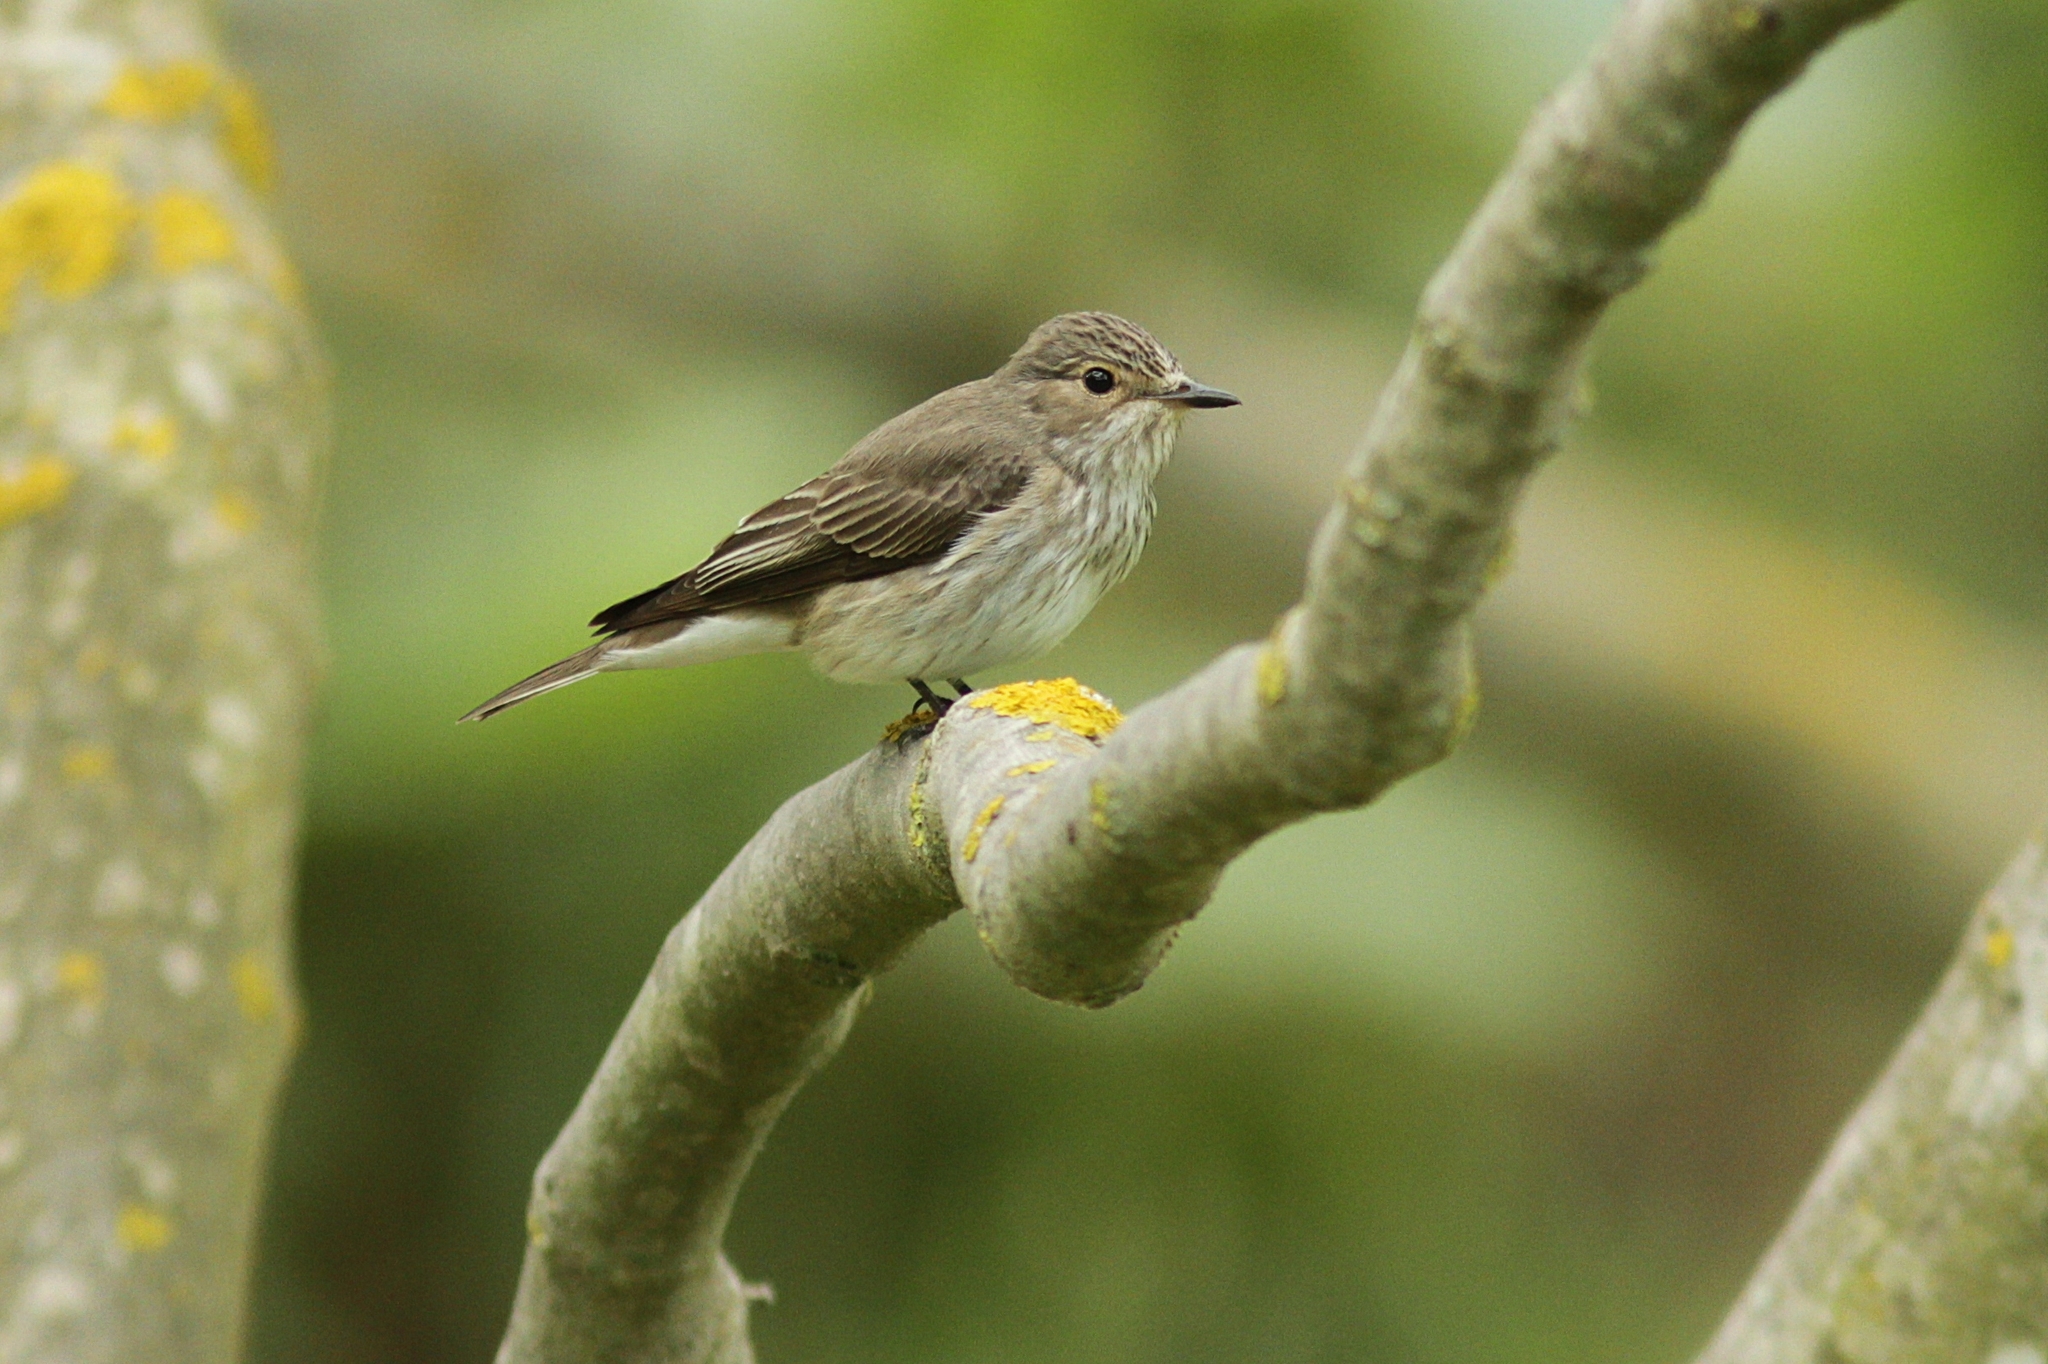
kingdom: Animalia
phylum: Chordata
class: Aves
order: Passeriformes
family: Muscicapidae
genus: Muscicapa
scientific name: Muscicapa striata
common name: Spotted flycatcher
